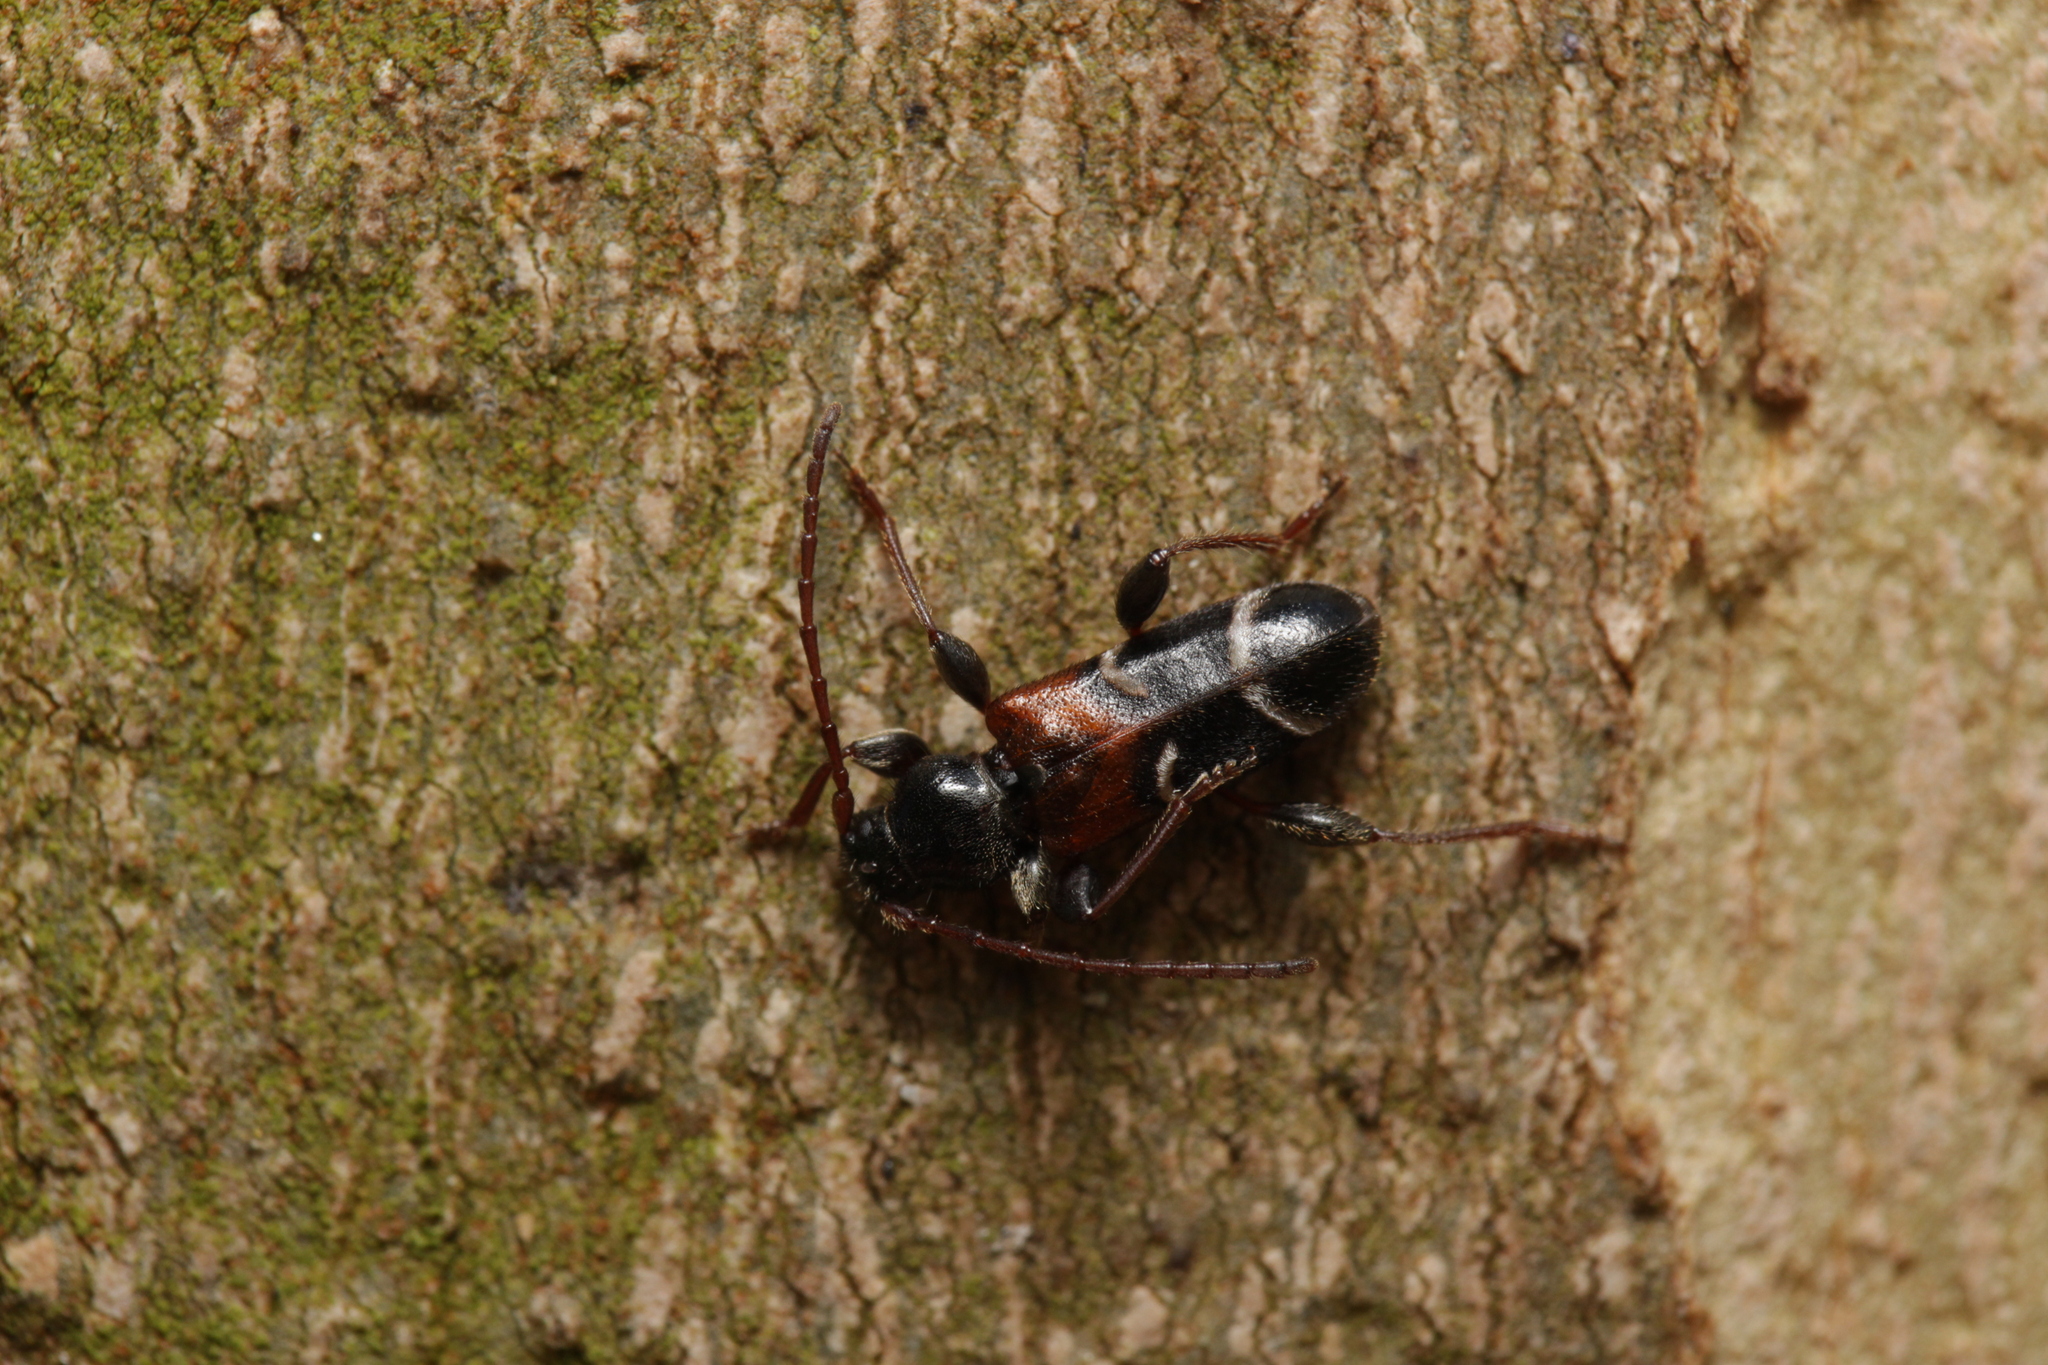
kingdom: Animalia
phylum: Arthropoda
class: Insecta
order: Coleoptera
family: Cerambycidae
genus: Poecilium
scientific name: Poecilium alni
